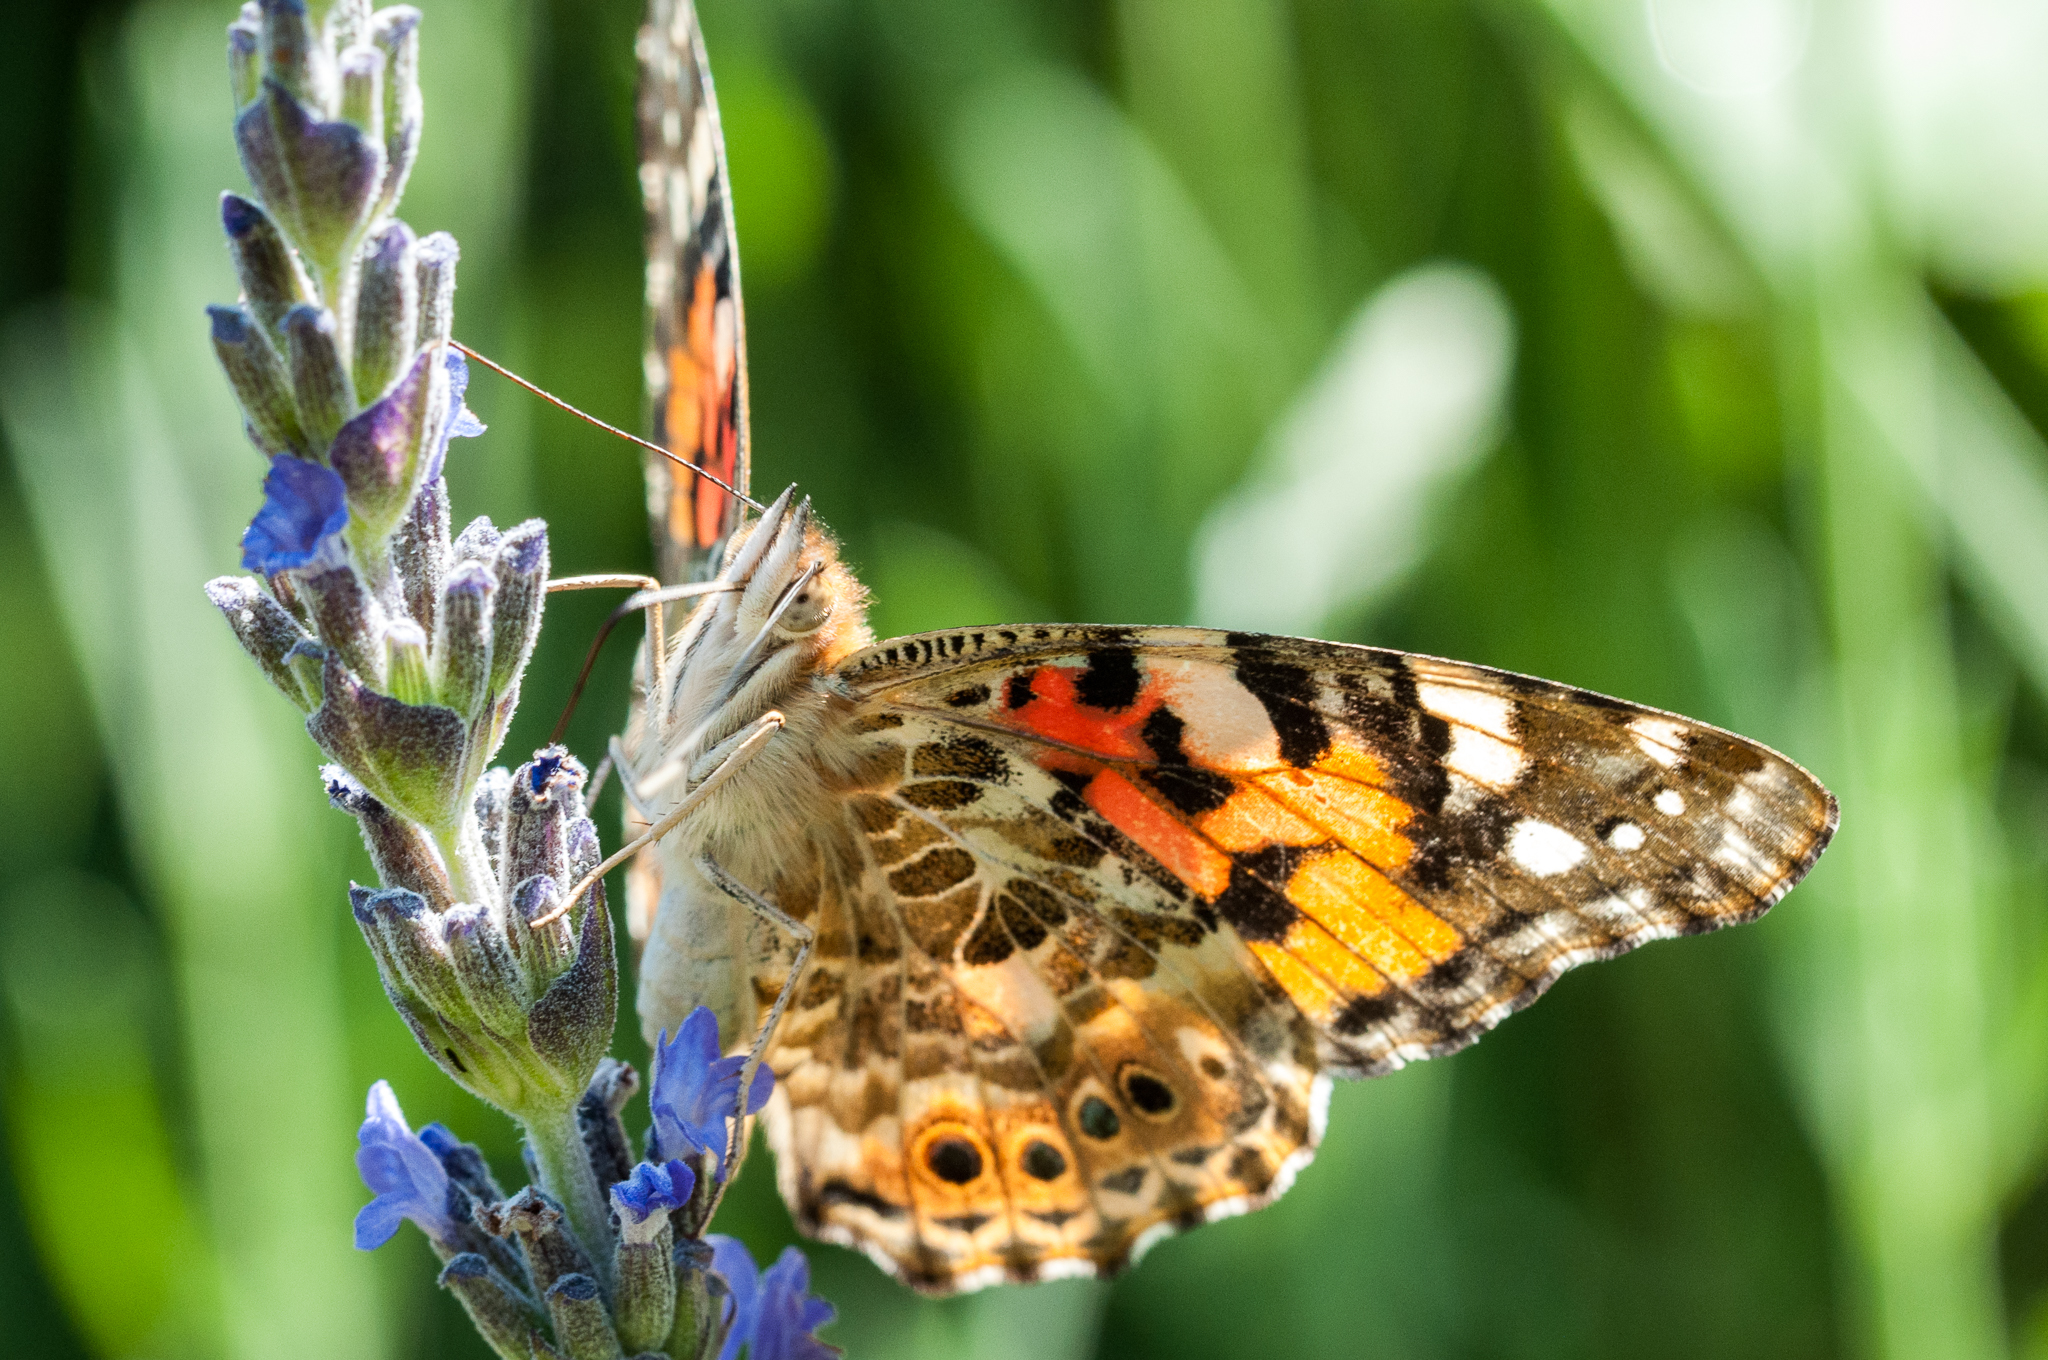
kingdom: Animalia
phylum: Arthropoda
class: Insecta
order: Lepidoptera
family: Nymphalidae
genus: Vanessa
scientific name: Vanessa cardui
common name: Painted lady
